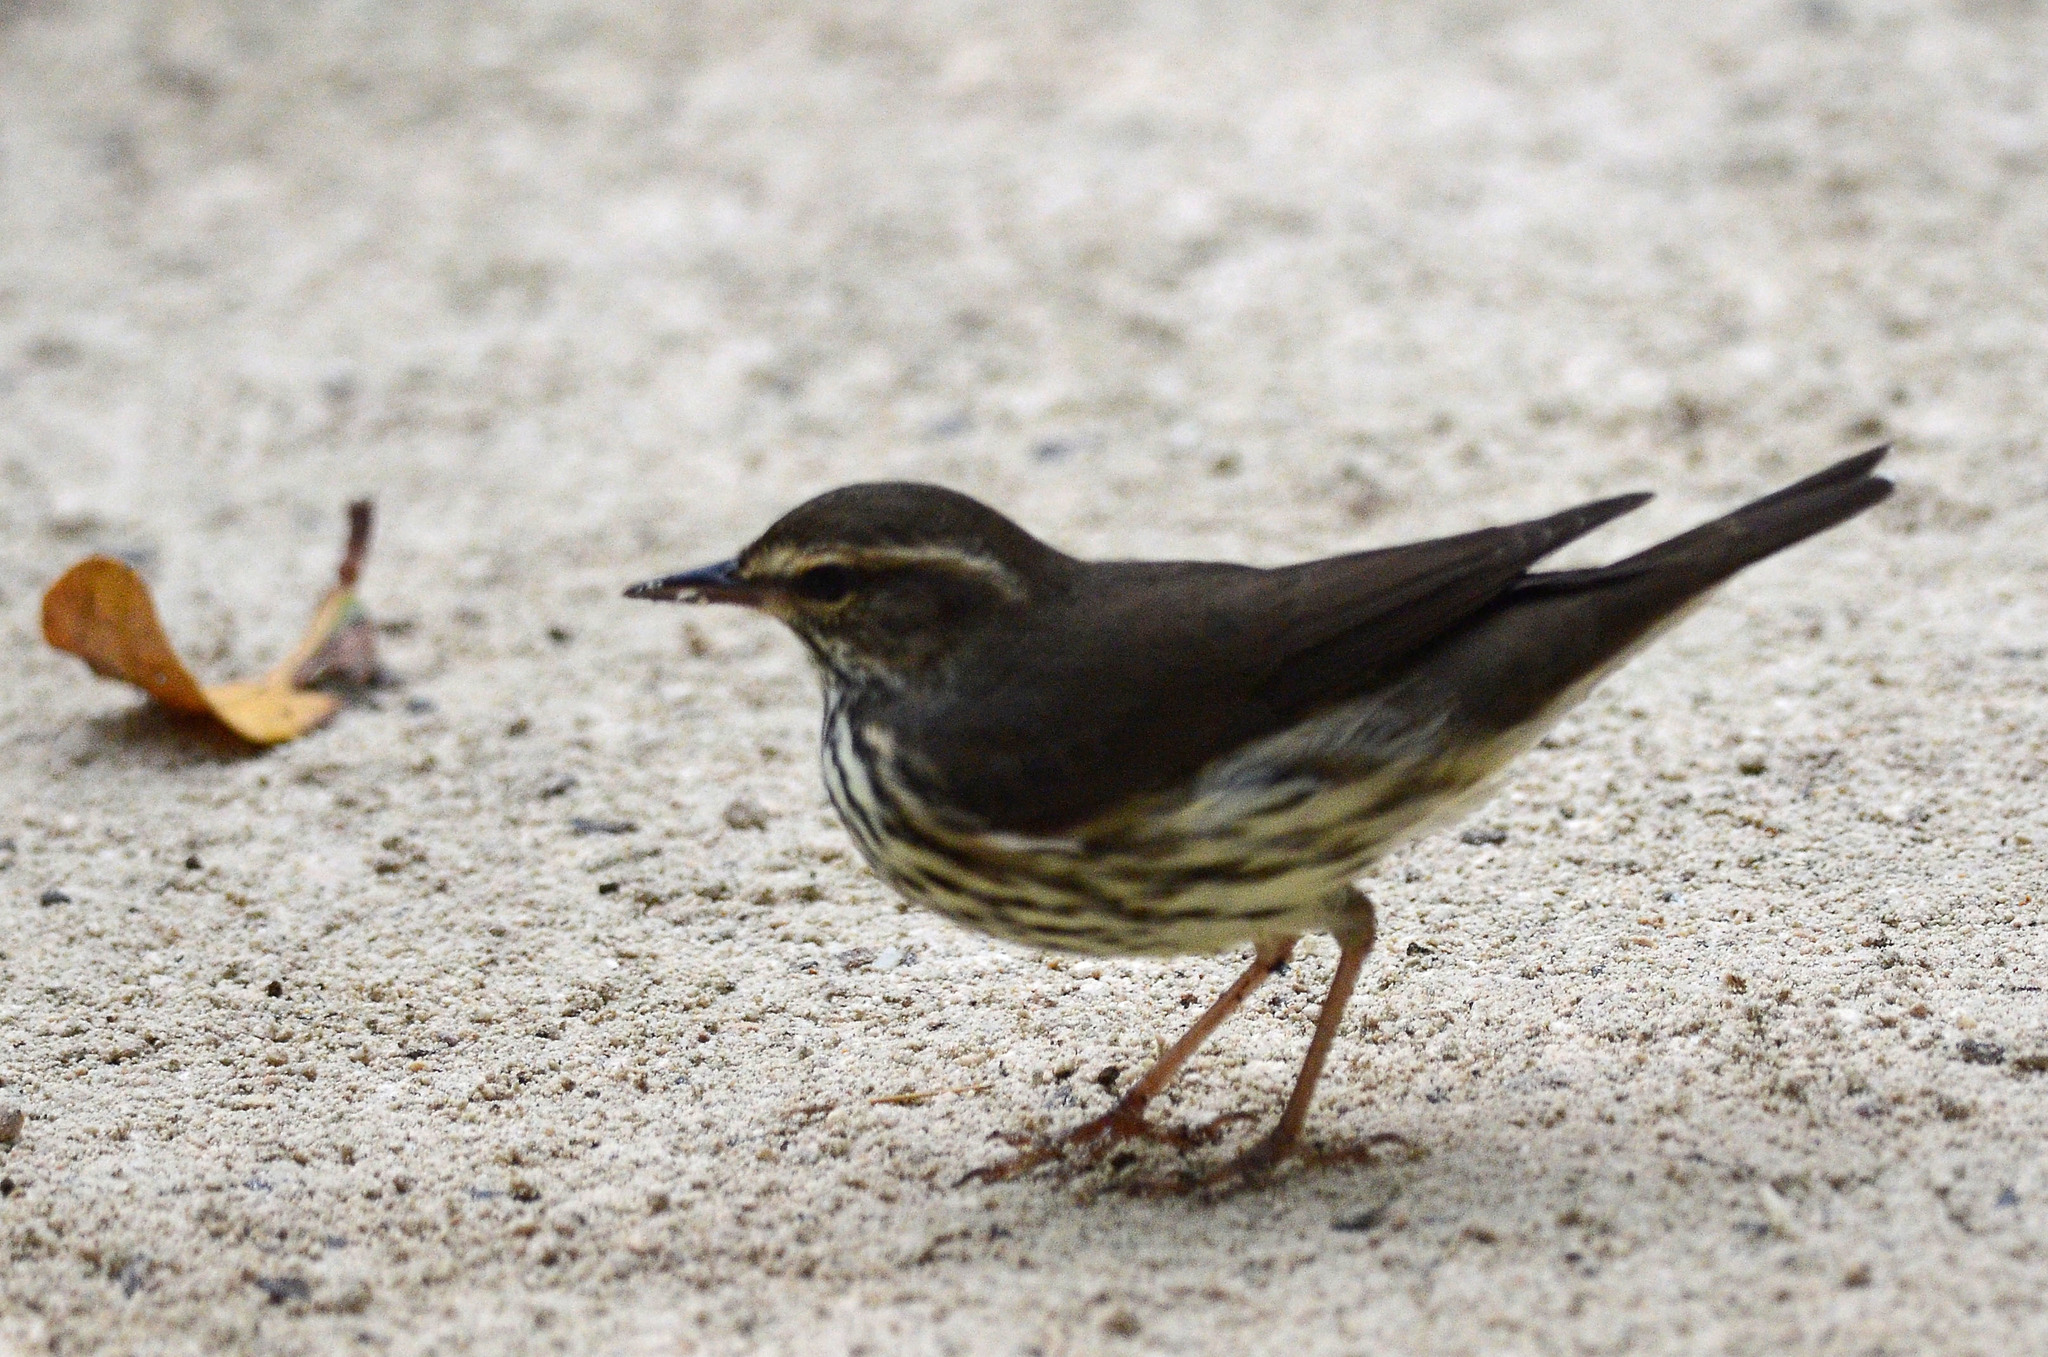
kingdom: Animalia
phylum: Chordata
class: Aves
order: Passeriformes
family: Parulidae
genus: Parkesia
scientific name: Parkesia noveboracensis
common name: Northern waterthrush
